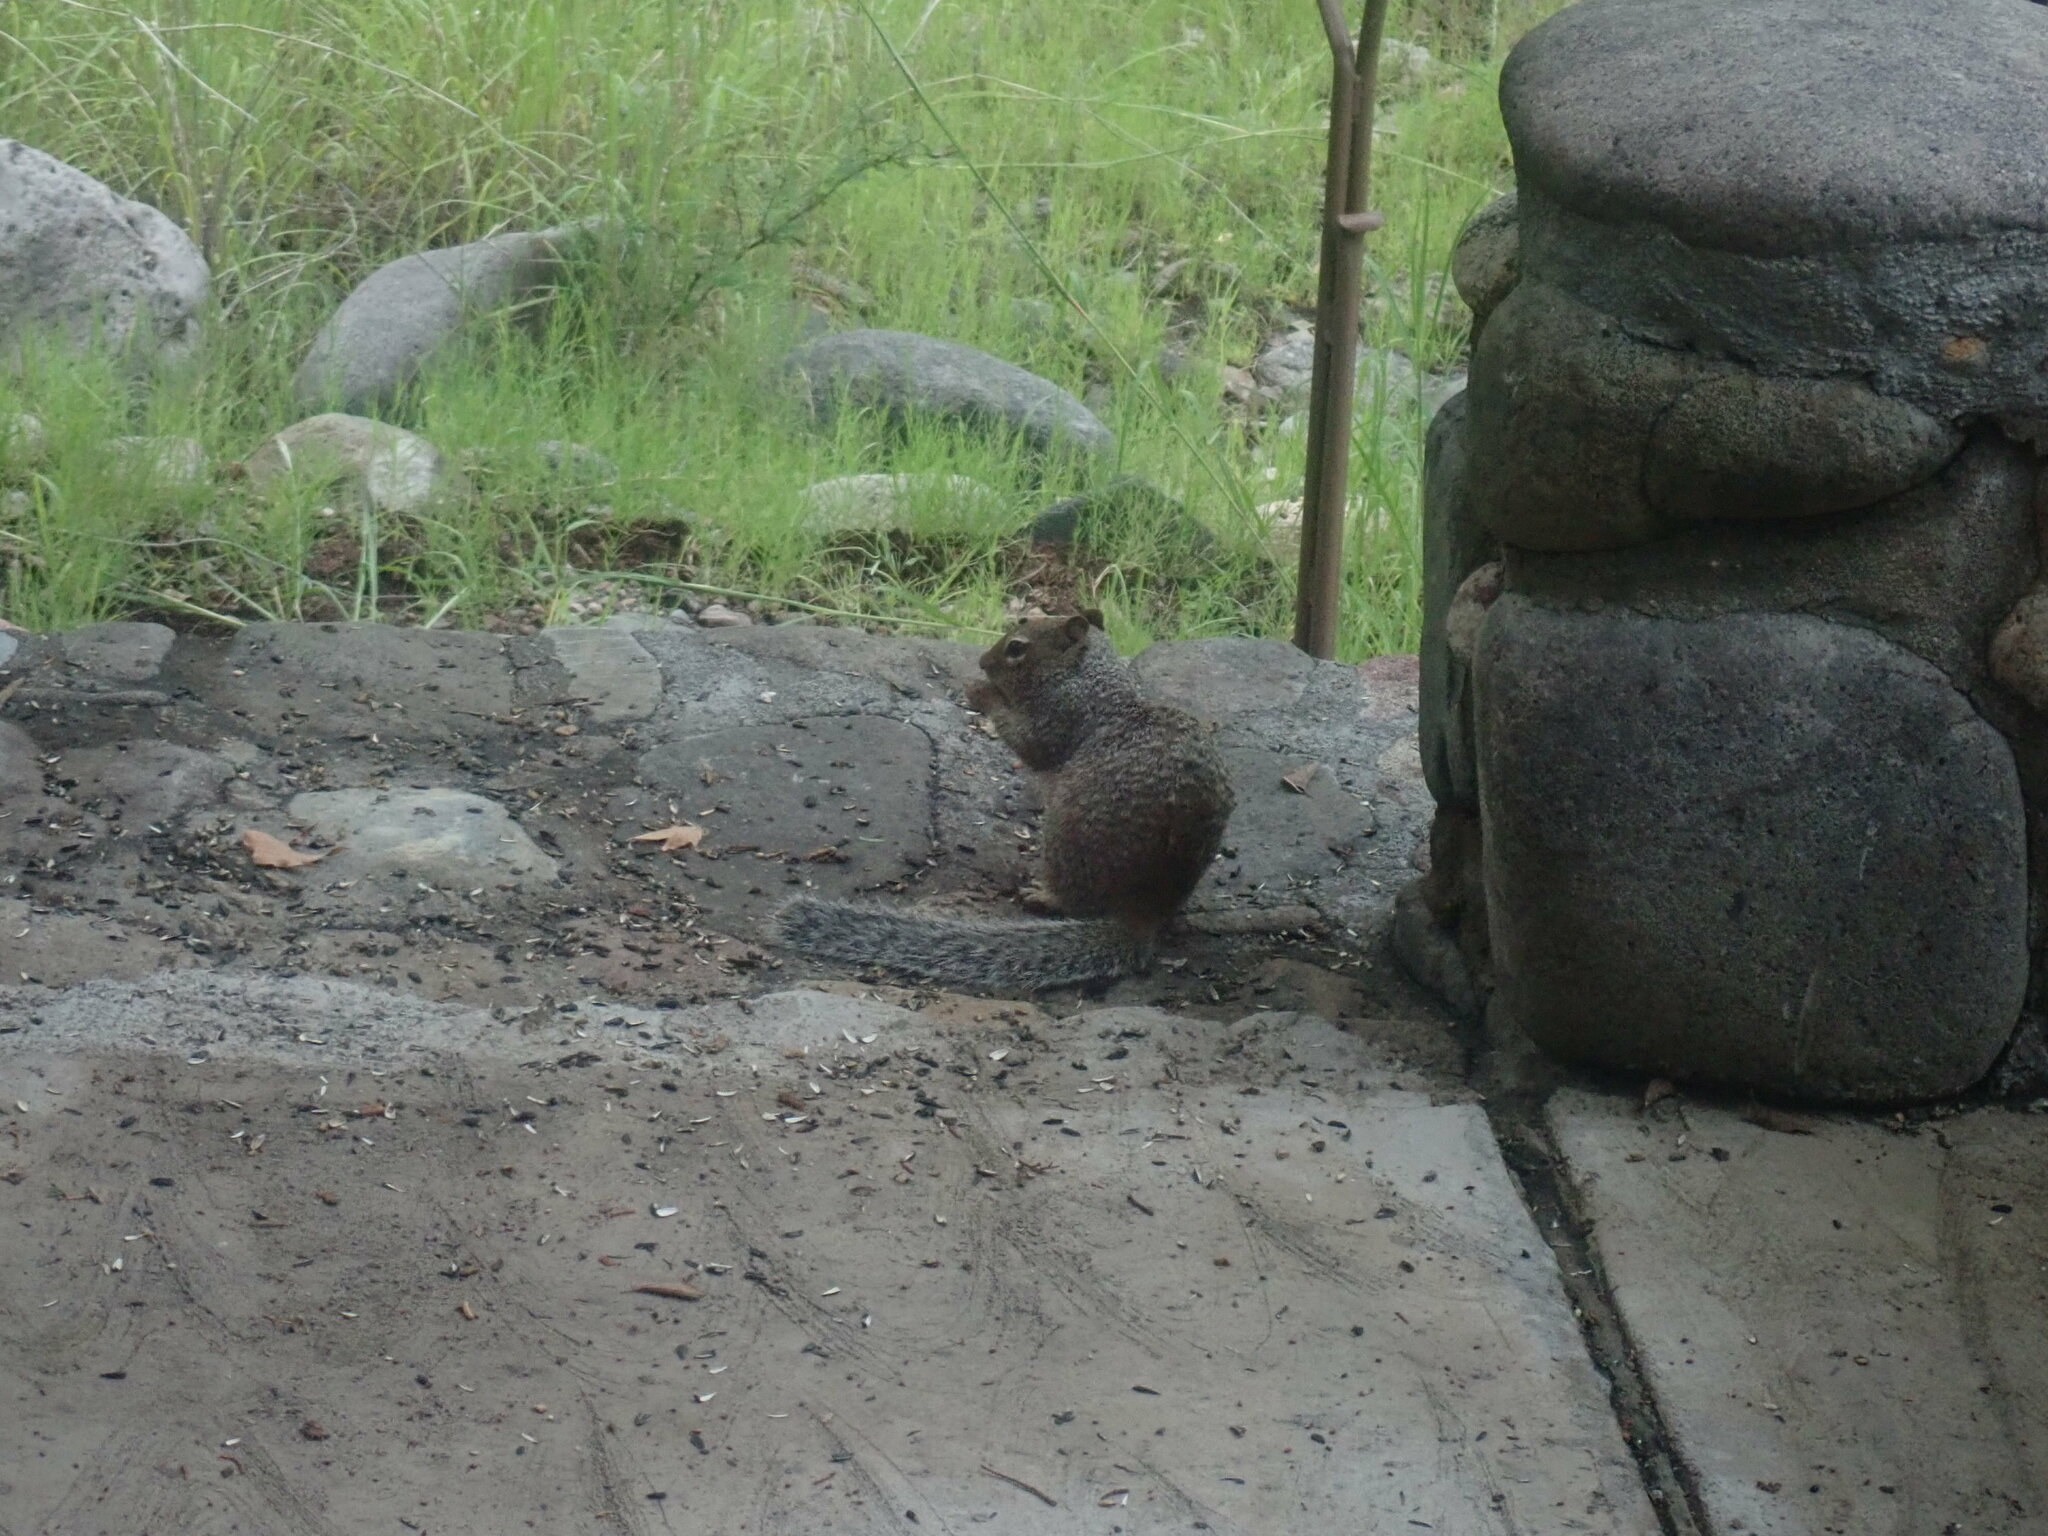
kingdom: Animalia
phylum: Chordata
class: Mammalia
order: Rodentia
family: Sciuridae
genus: Otospermophilus
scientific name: Otospermophilus variegatus
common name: Rock squirrel
